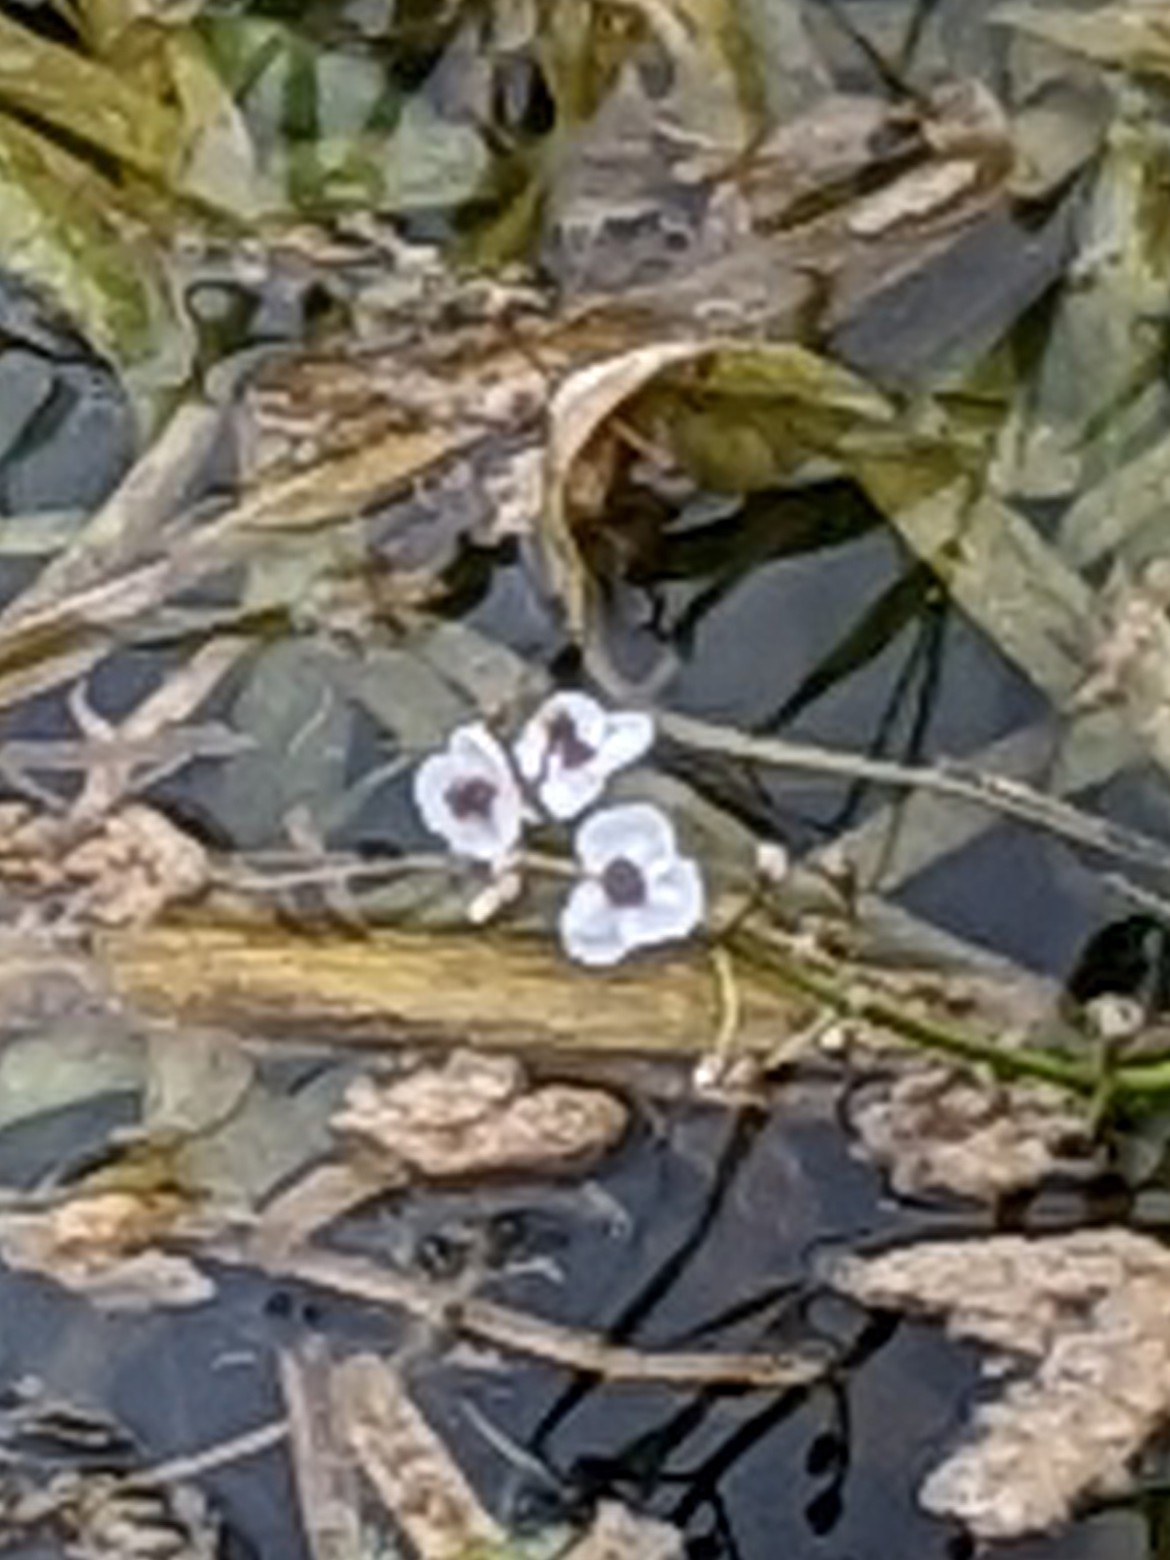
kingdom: Plantae
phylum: Tracheophyta
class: Liliopsida
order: Alismatales
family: Alismataceae
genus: Sagittaria
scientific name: Sagittaria sagittifolia
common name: Arrowhead
